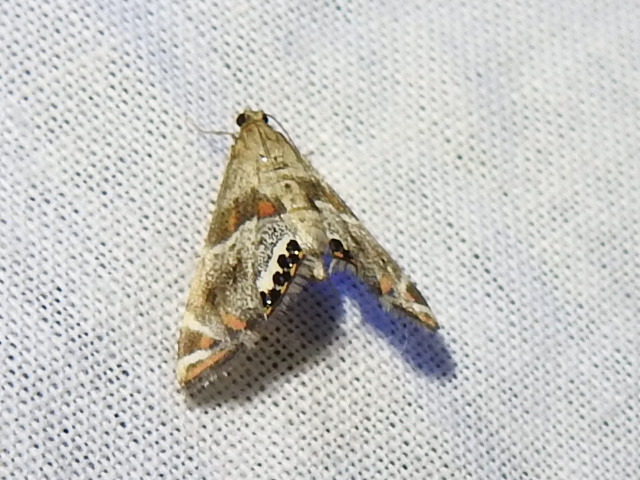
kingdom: Animalia
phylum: Arthropoda
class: Insecta
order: Lepidoptera
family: Crambidae
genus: Petrophila
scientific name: Petrophila jaliscalis
